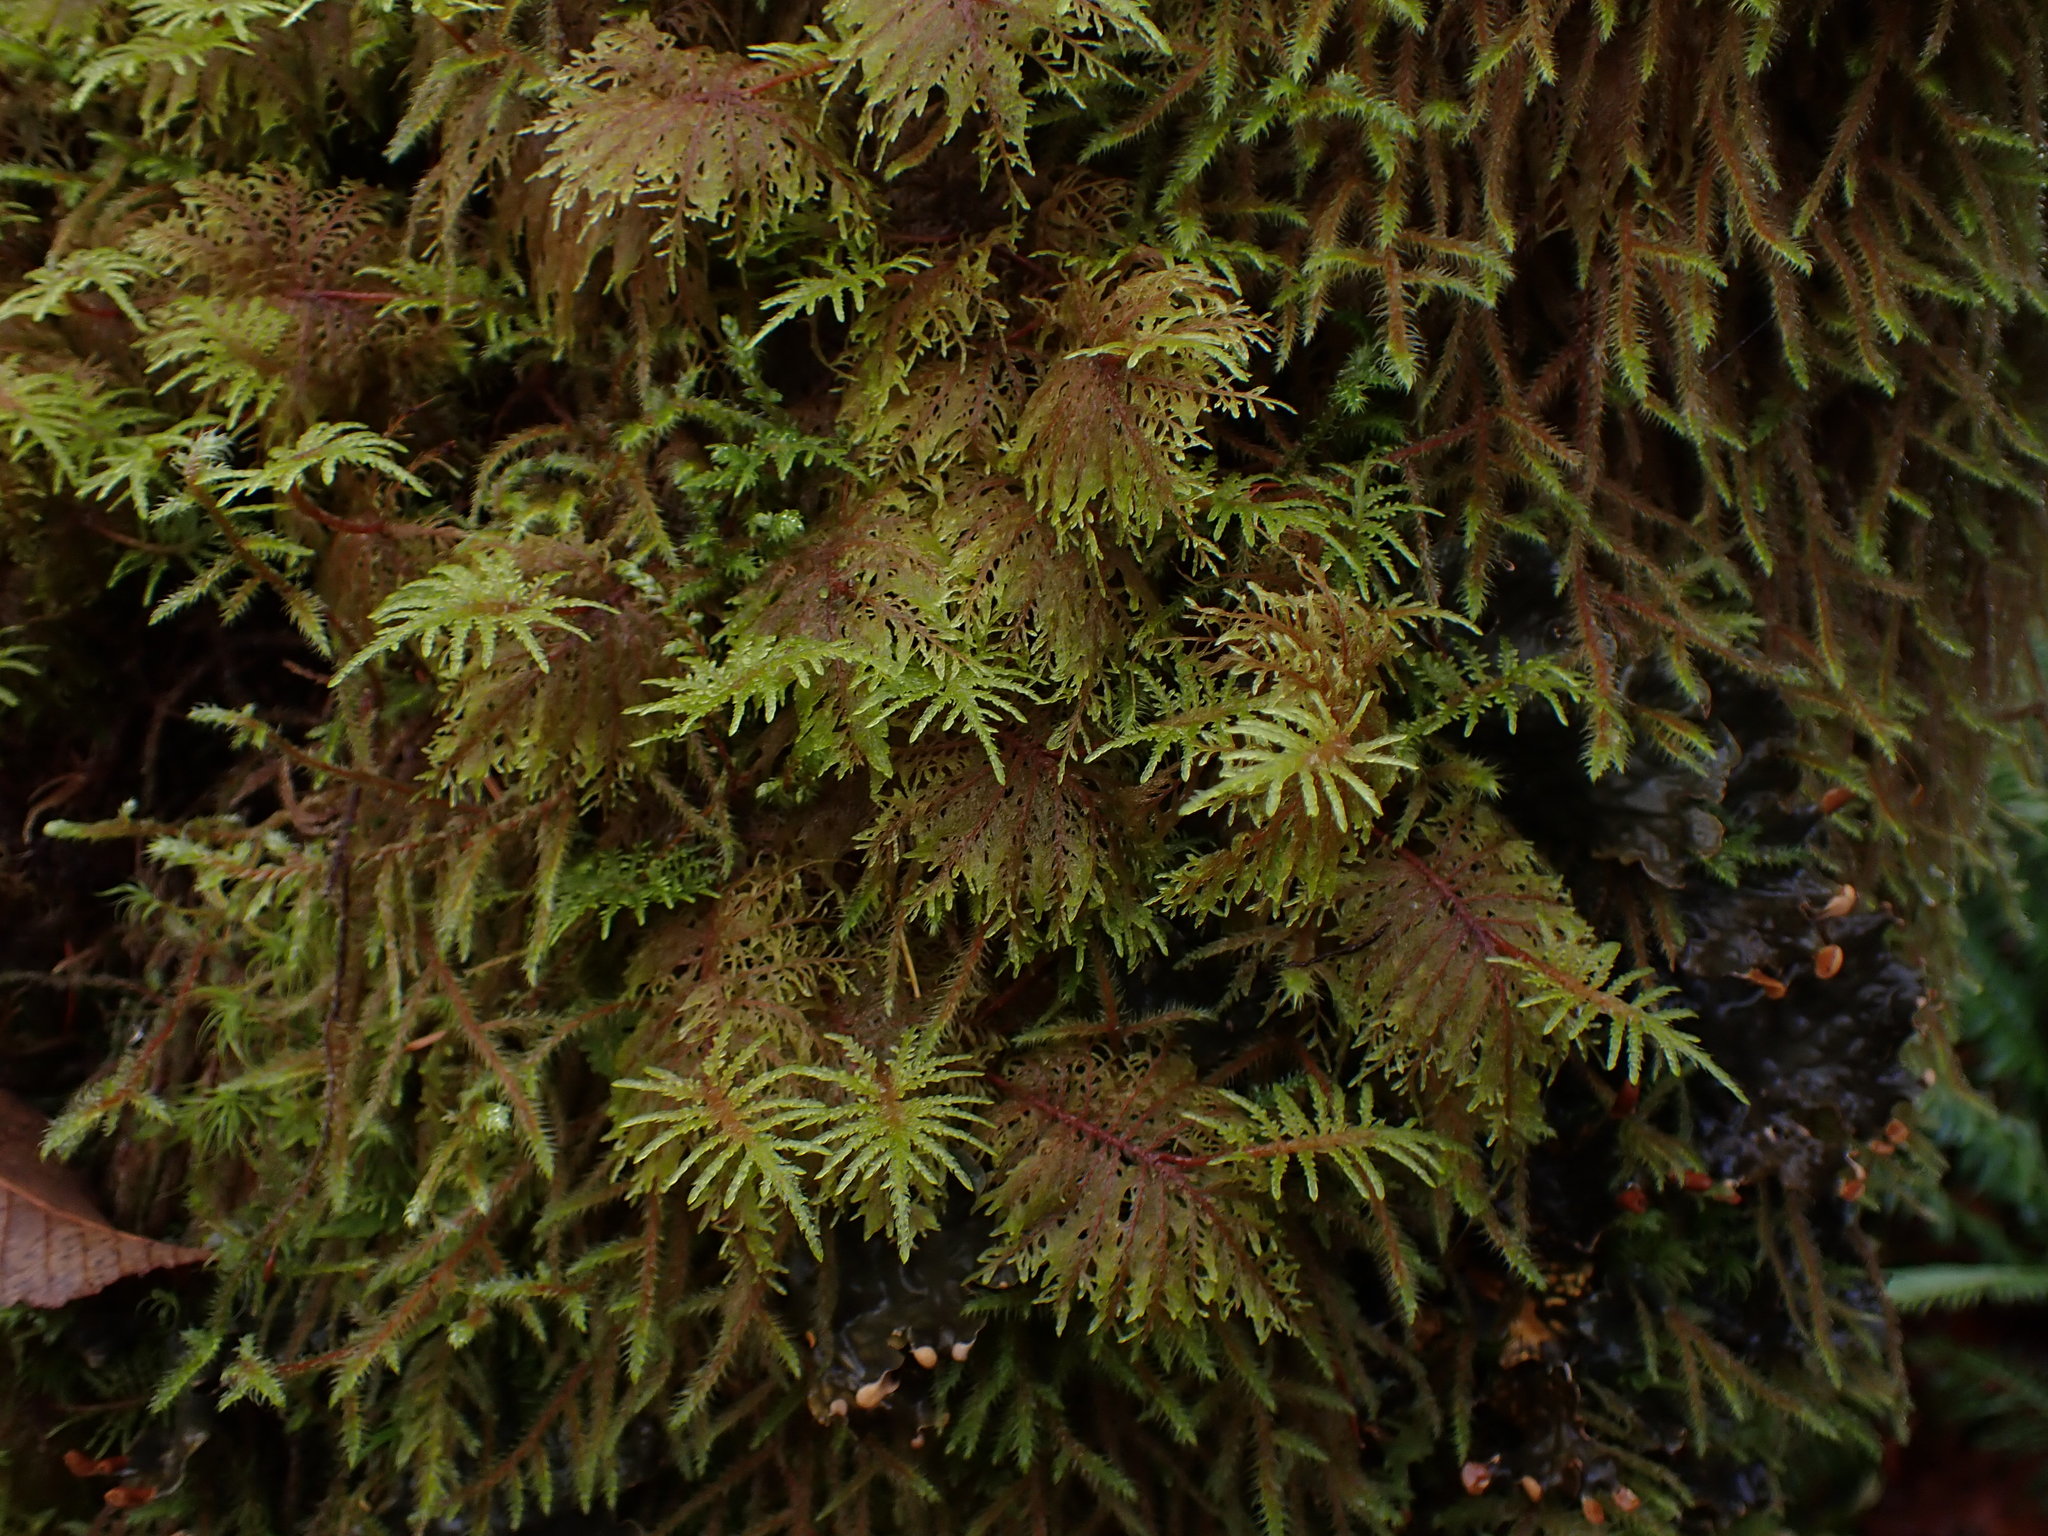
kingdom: Plantae
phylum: Bryophyta
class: Bryopsida
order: Hypnales
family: Hylocomiaceae
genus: Hylocomium
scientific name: Hylocomium splendens
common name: Stairstep moss
